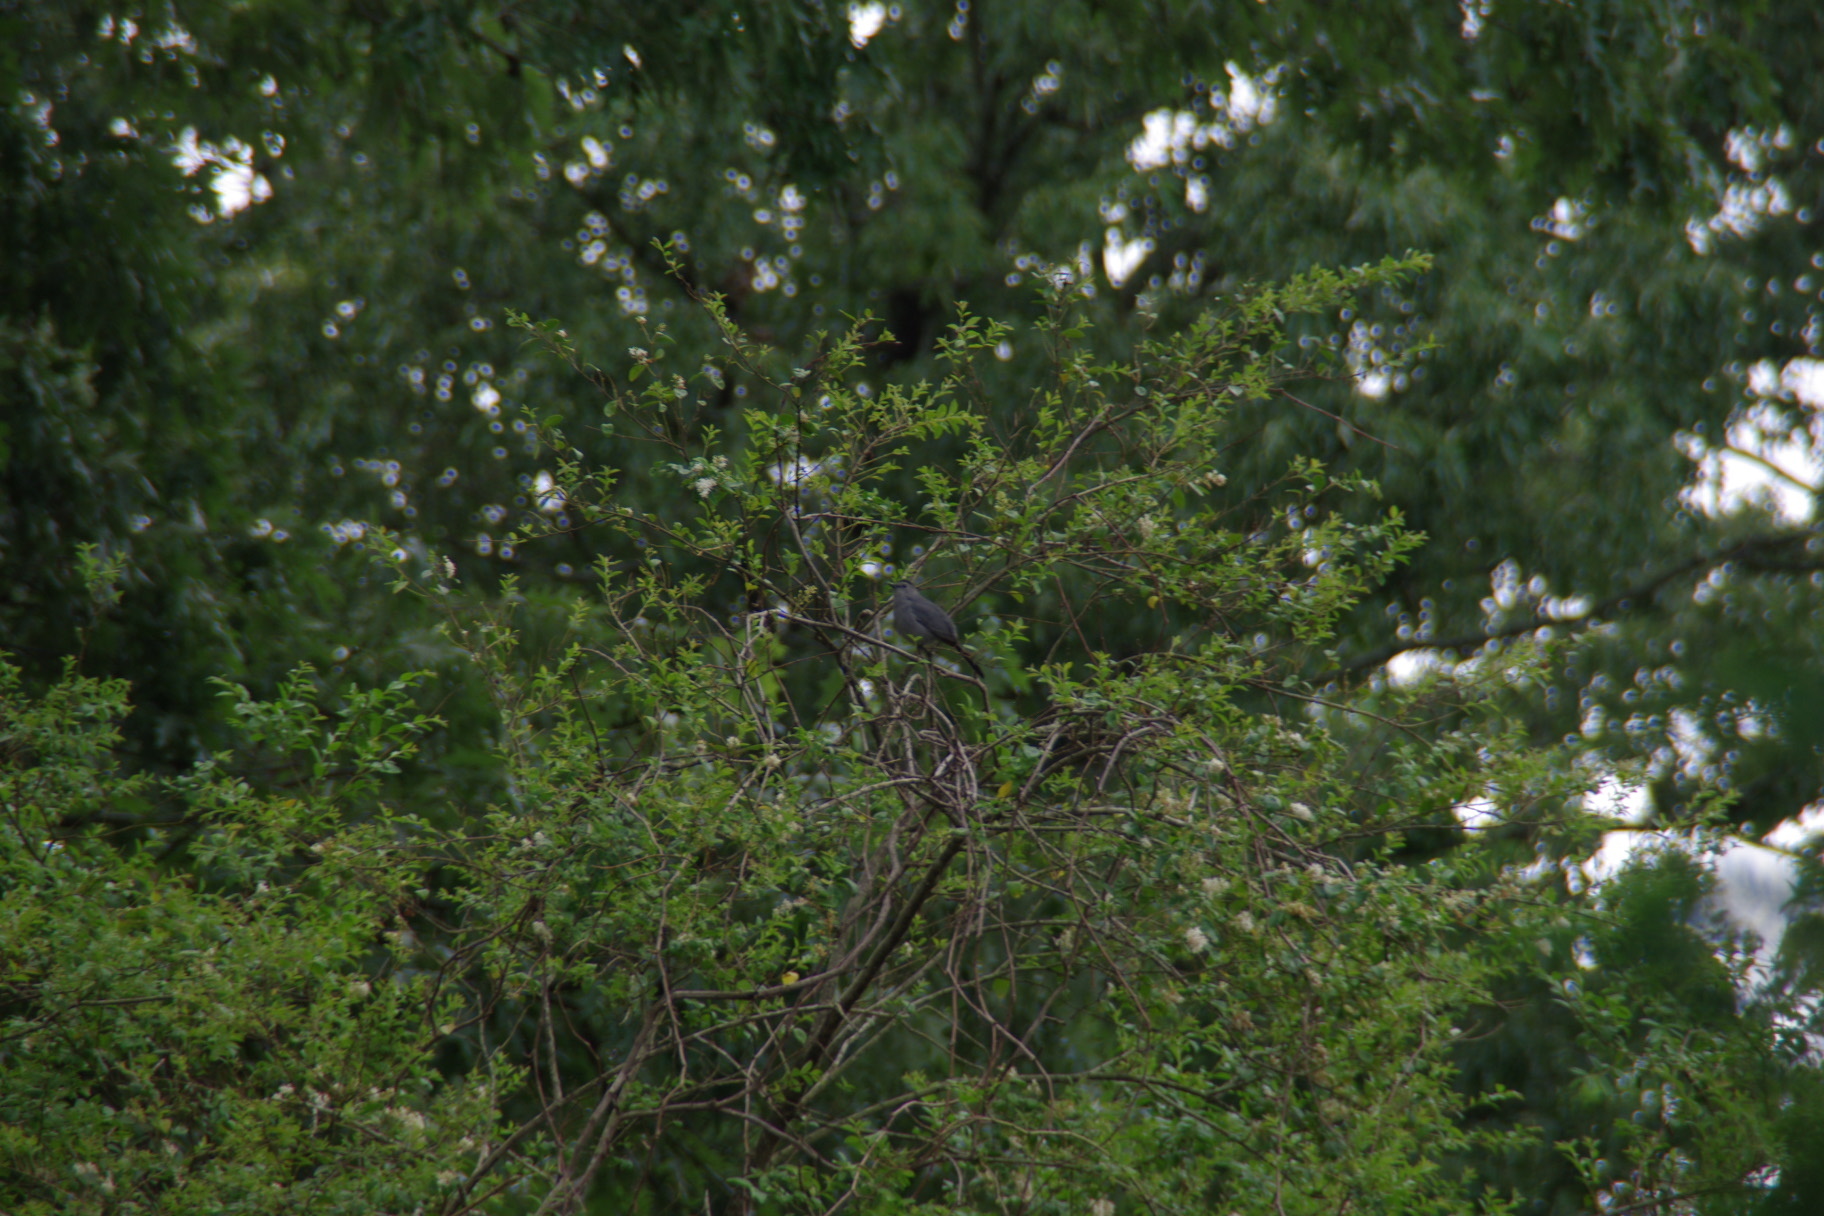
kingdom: Animalia
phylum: Chordata
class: Aves
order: Passeriformes
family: Mimidae
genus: Dumetella
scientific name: Dumetella carolinensis
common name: Gray catbird
